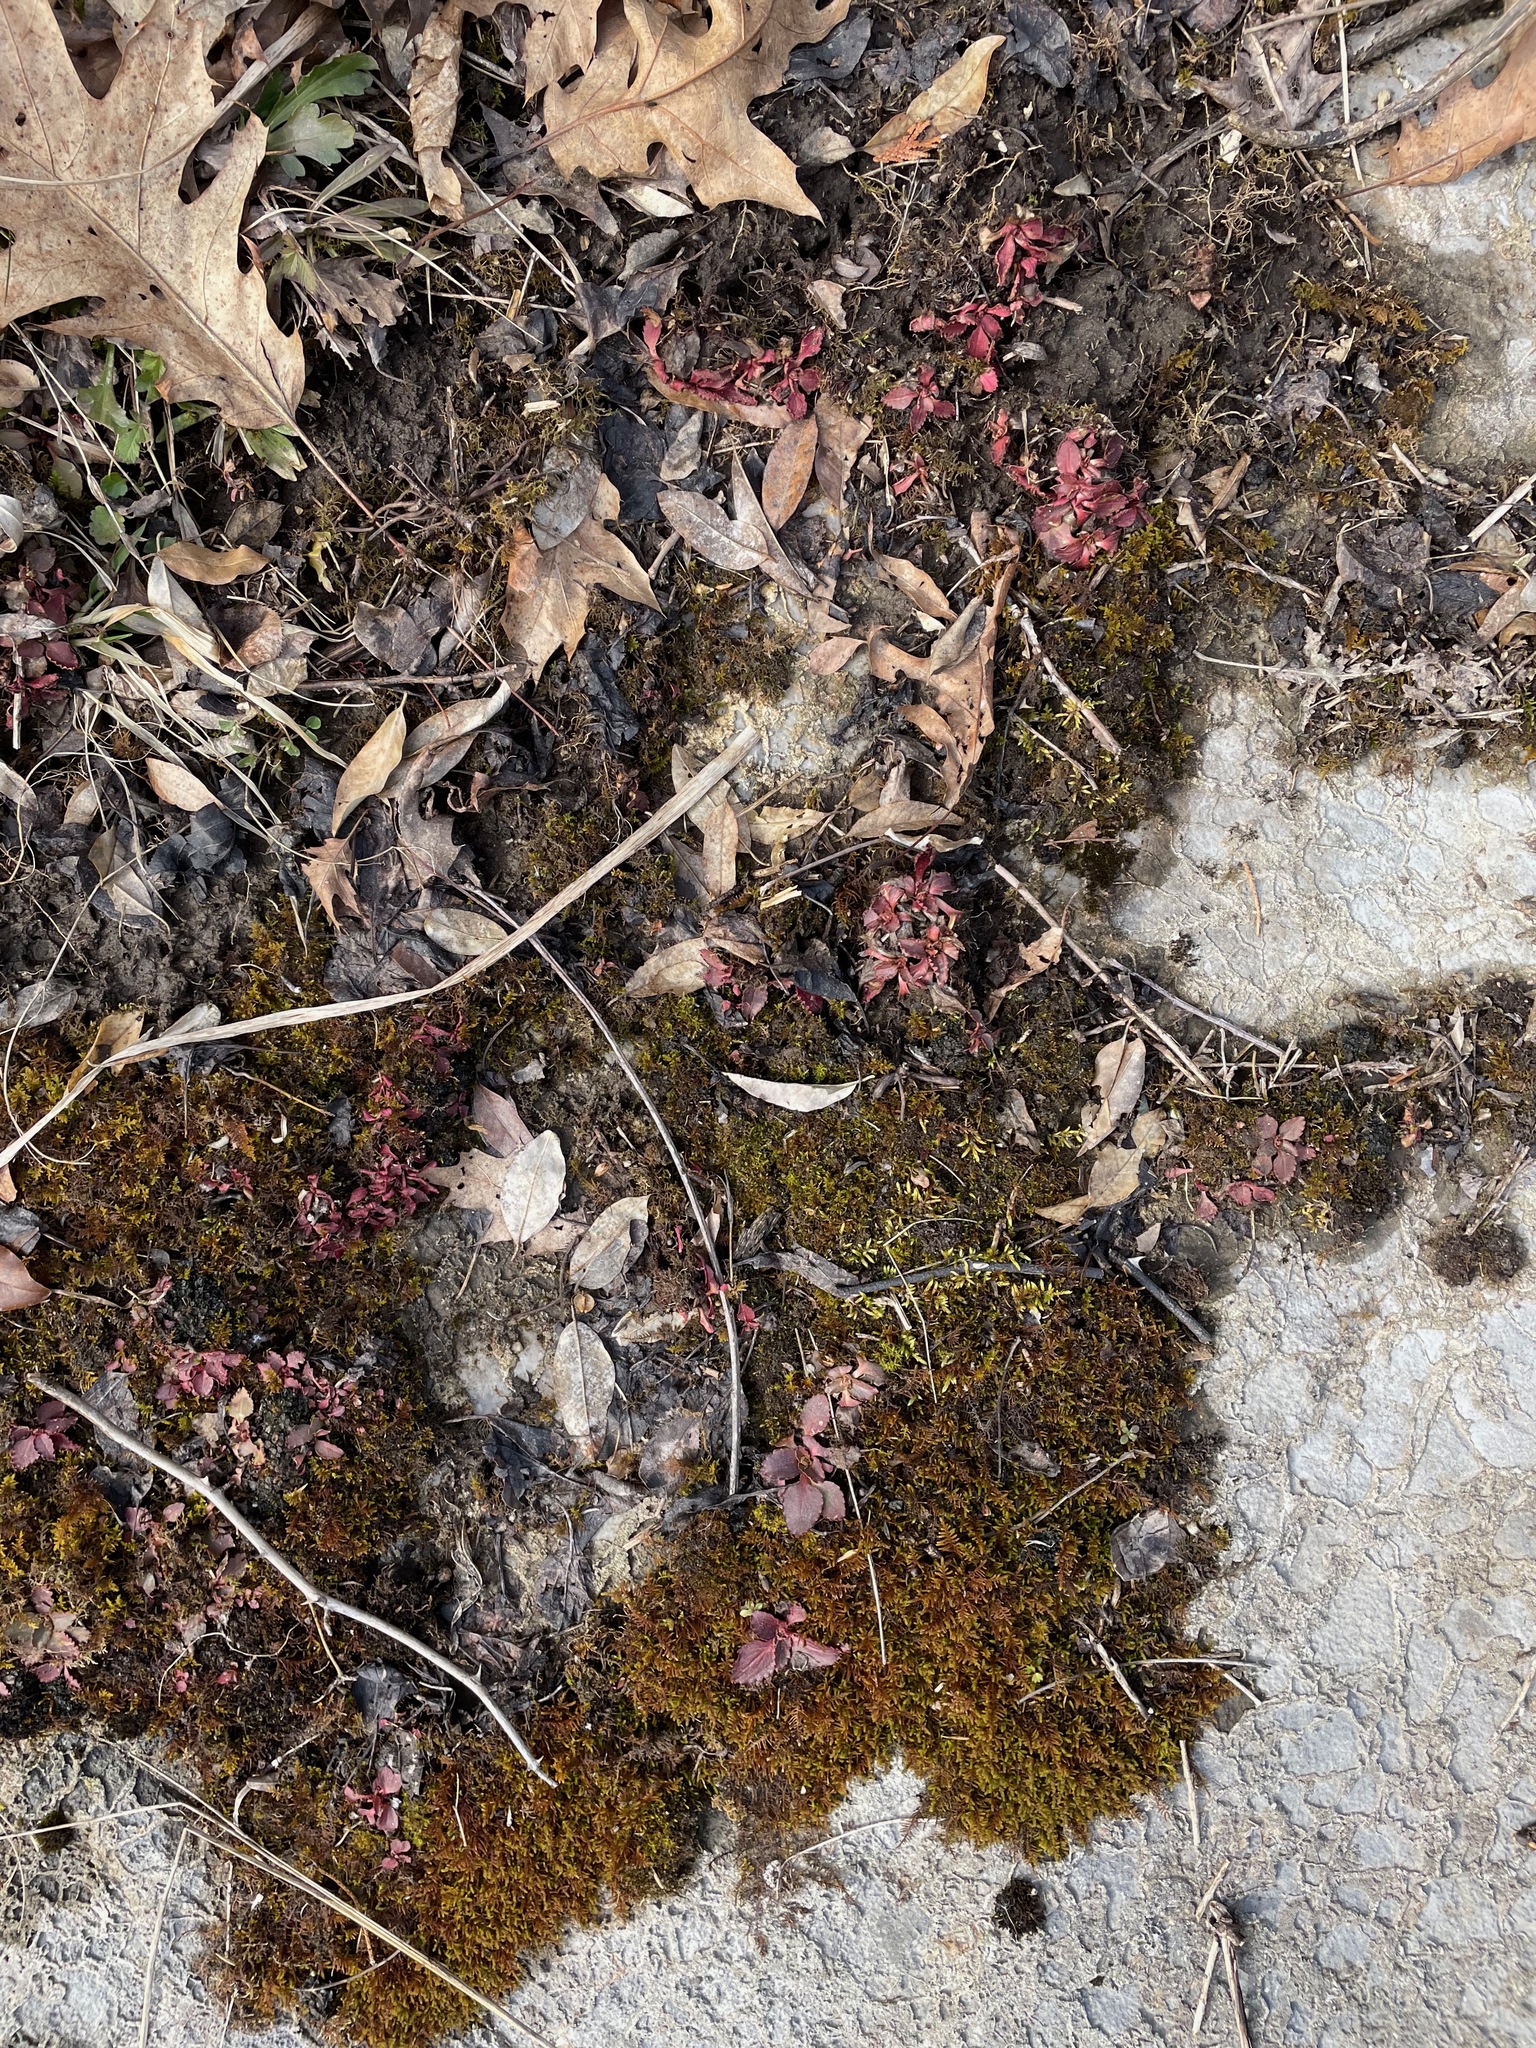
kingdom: Plantae
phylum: Tracheophyta
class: Magnoliopsida
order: Saxifragales
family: Saxifragaceae
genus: Micranthes
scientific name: Micranthes virginiensis
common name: Early saxifrage
